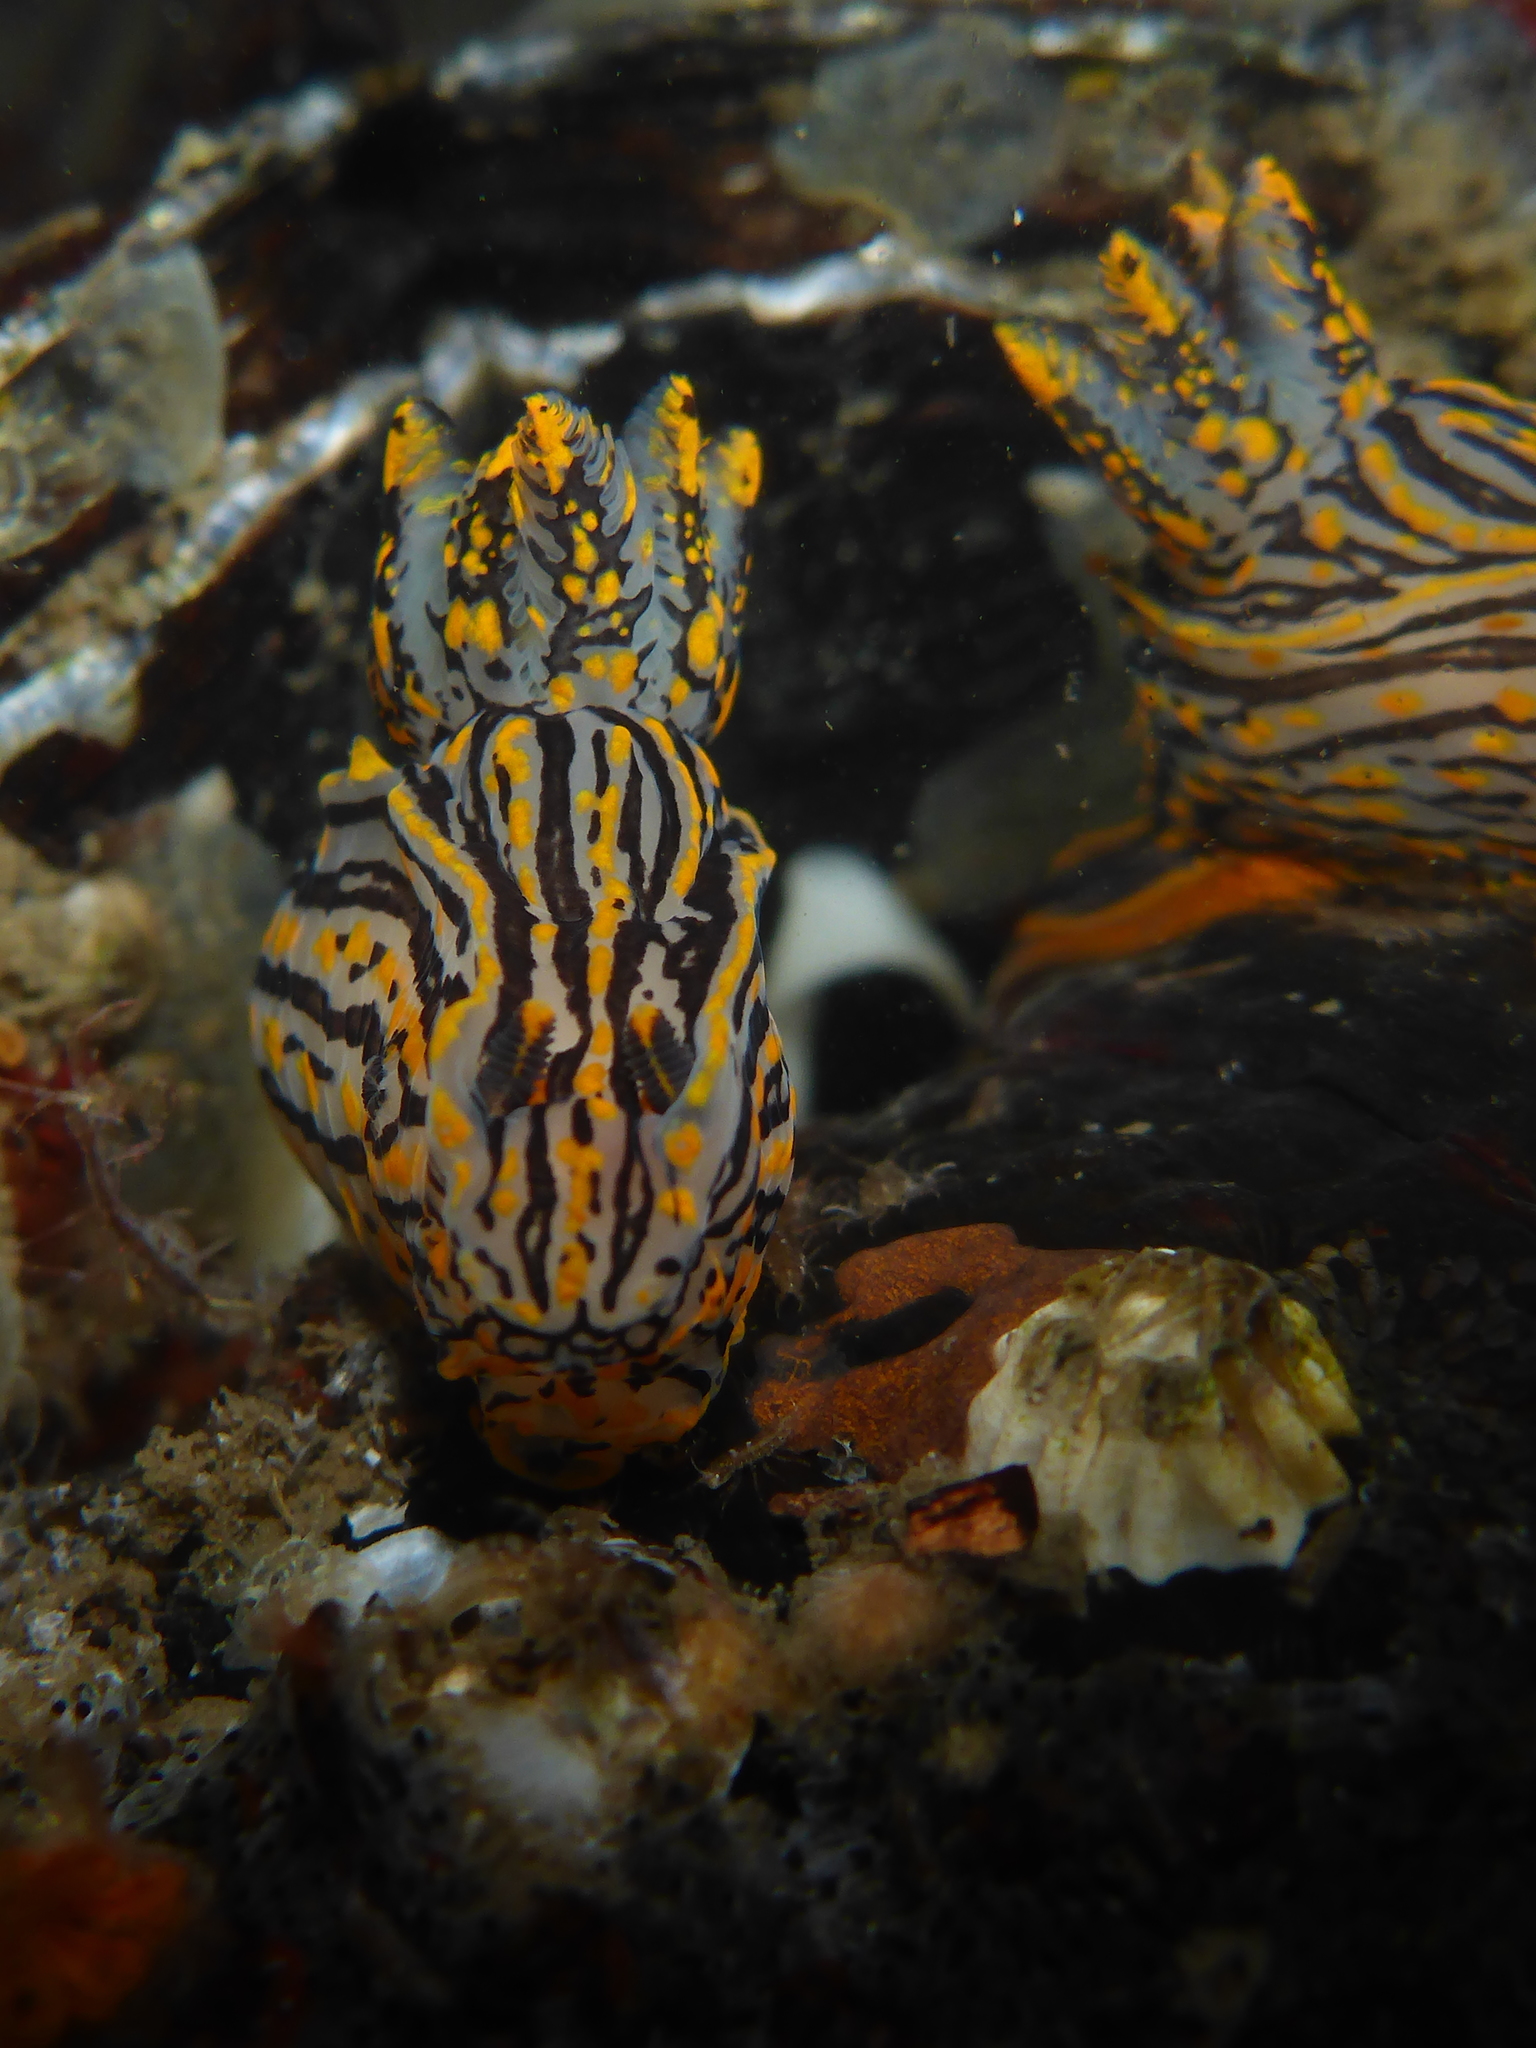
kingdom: Animalia
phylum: Mollusca
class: Gastropoda
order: Nudibranchia
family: Polyceridae
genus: Polycera
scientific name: Polycera atra
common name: Orange-spike polycera
